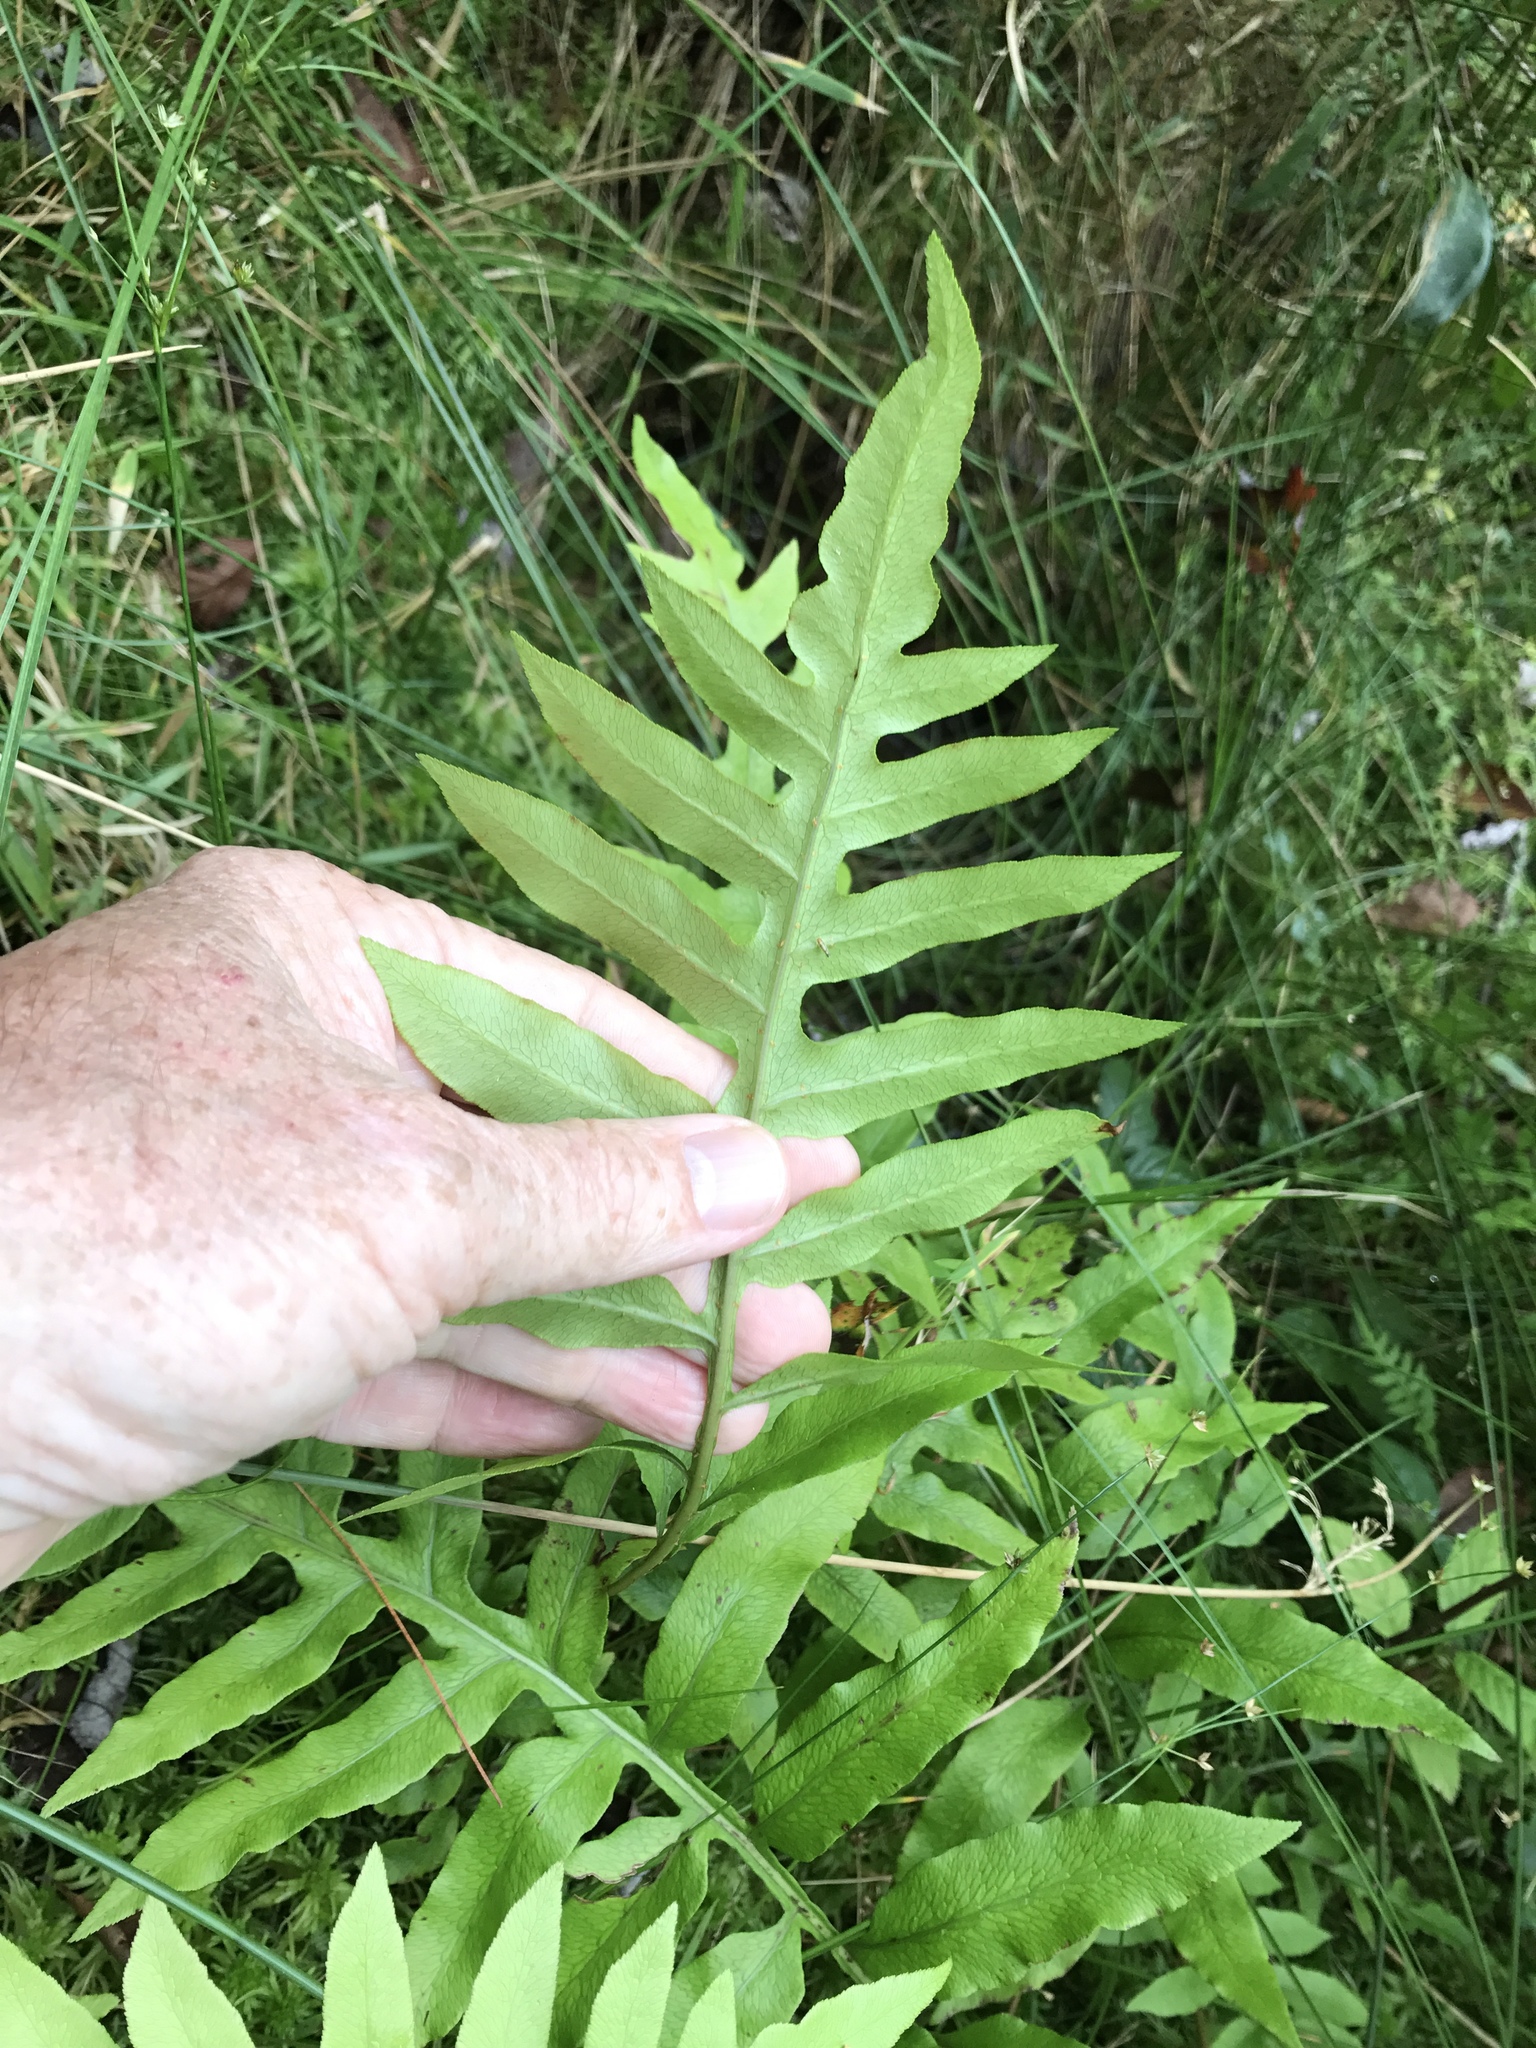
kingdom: Plantae
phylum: Tracheophyta
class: Polypodiopsida
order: Polypodiales
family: Blechnaceae
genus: Lorinseria
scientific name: Lorinseria areolata
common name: Dwarf chain fern
